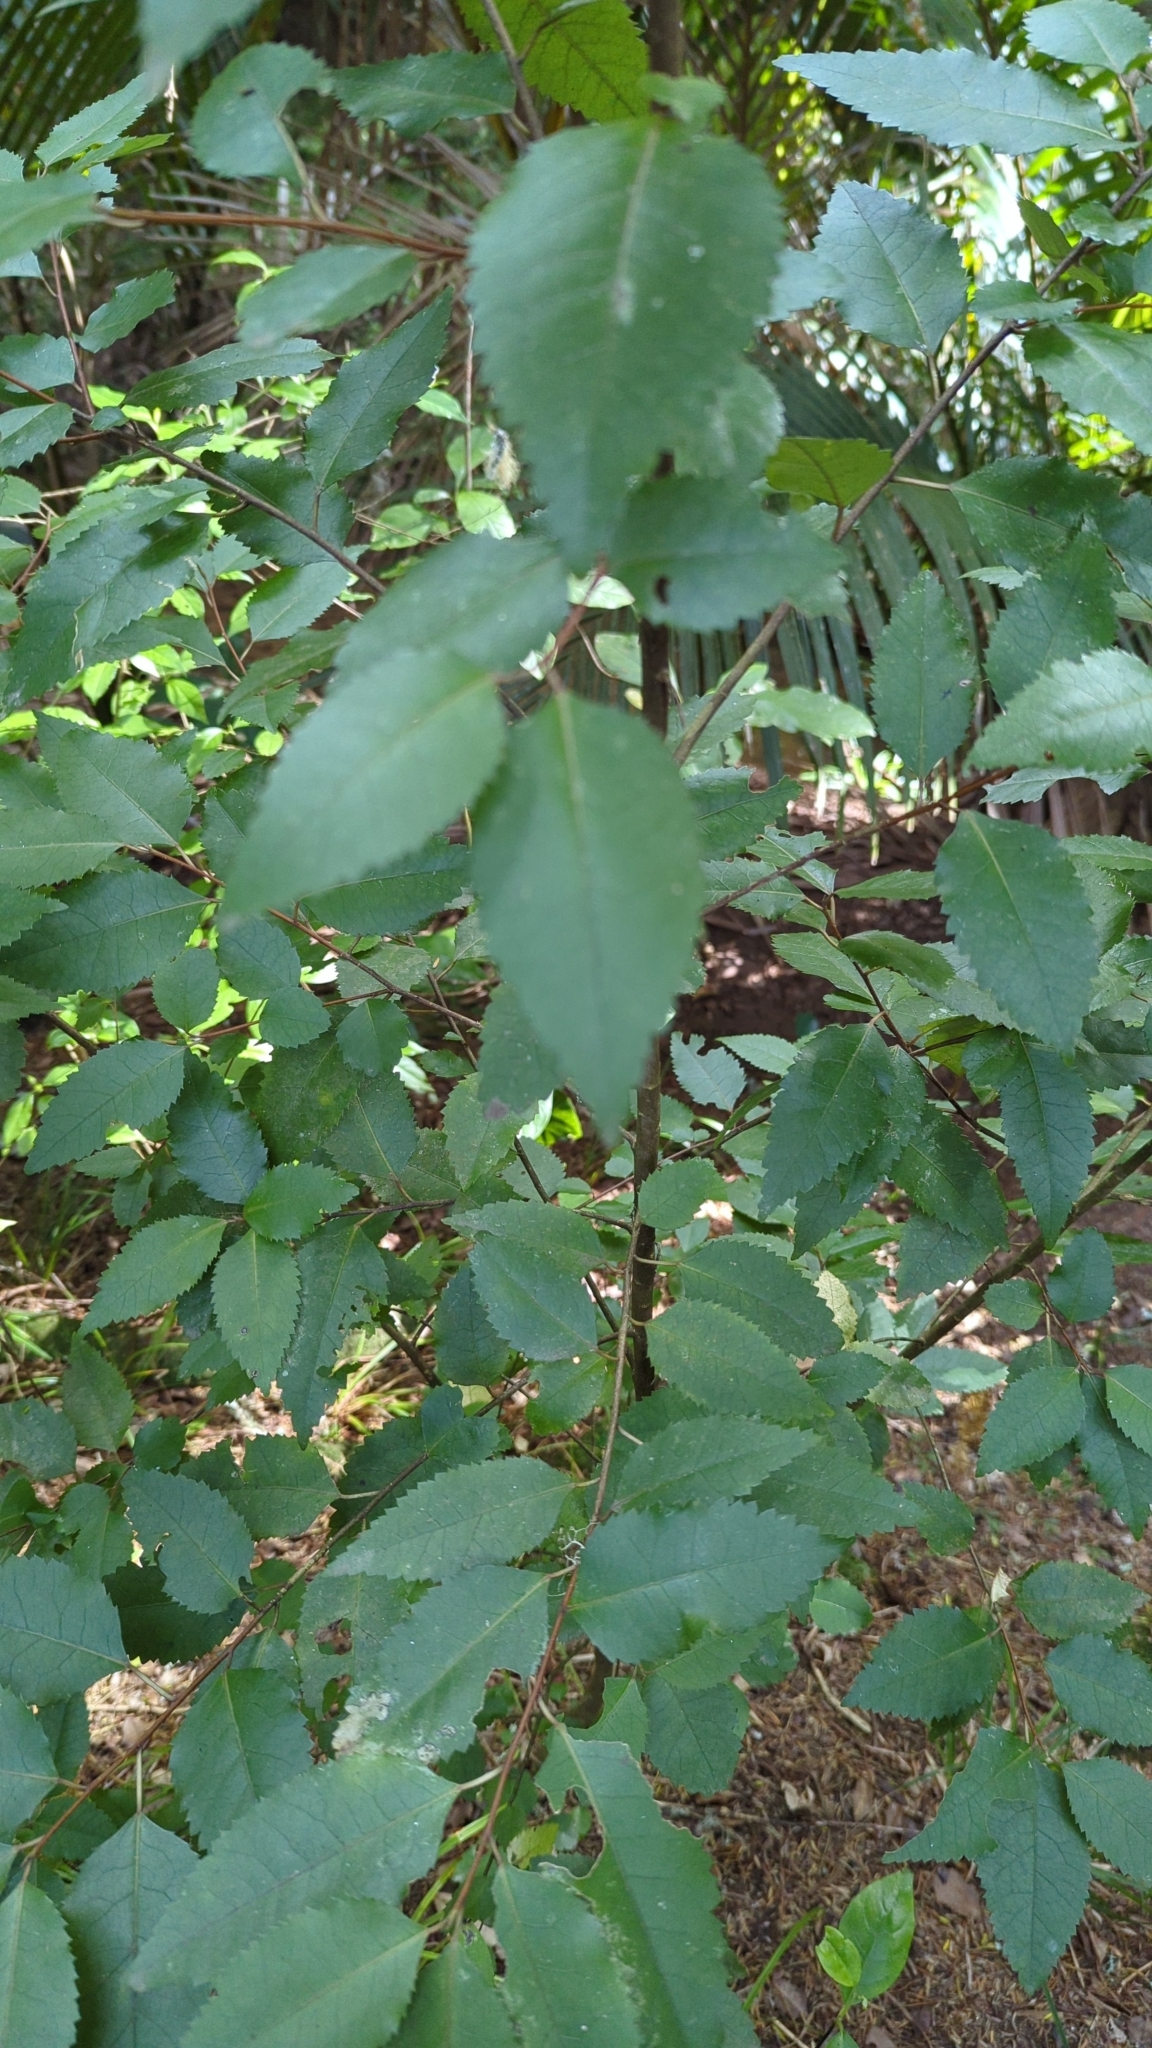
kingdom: Plantae
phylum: Tracheophyta
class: Magnoliopsida
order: Malvales
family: Malvaceae
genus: Hoheria
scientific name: Hoheria populnea
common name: Lacebark
